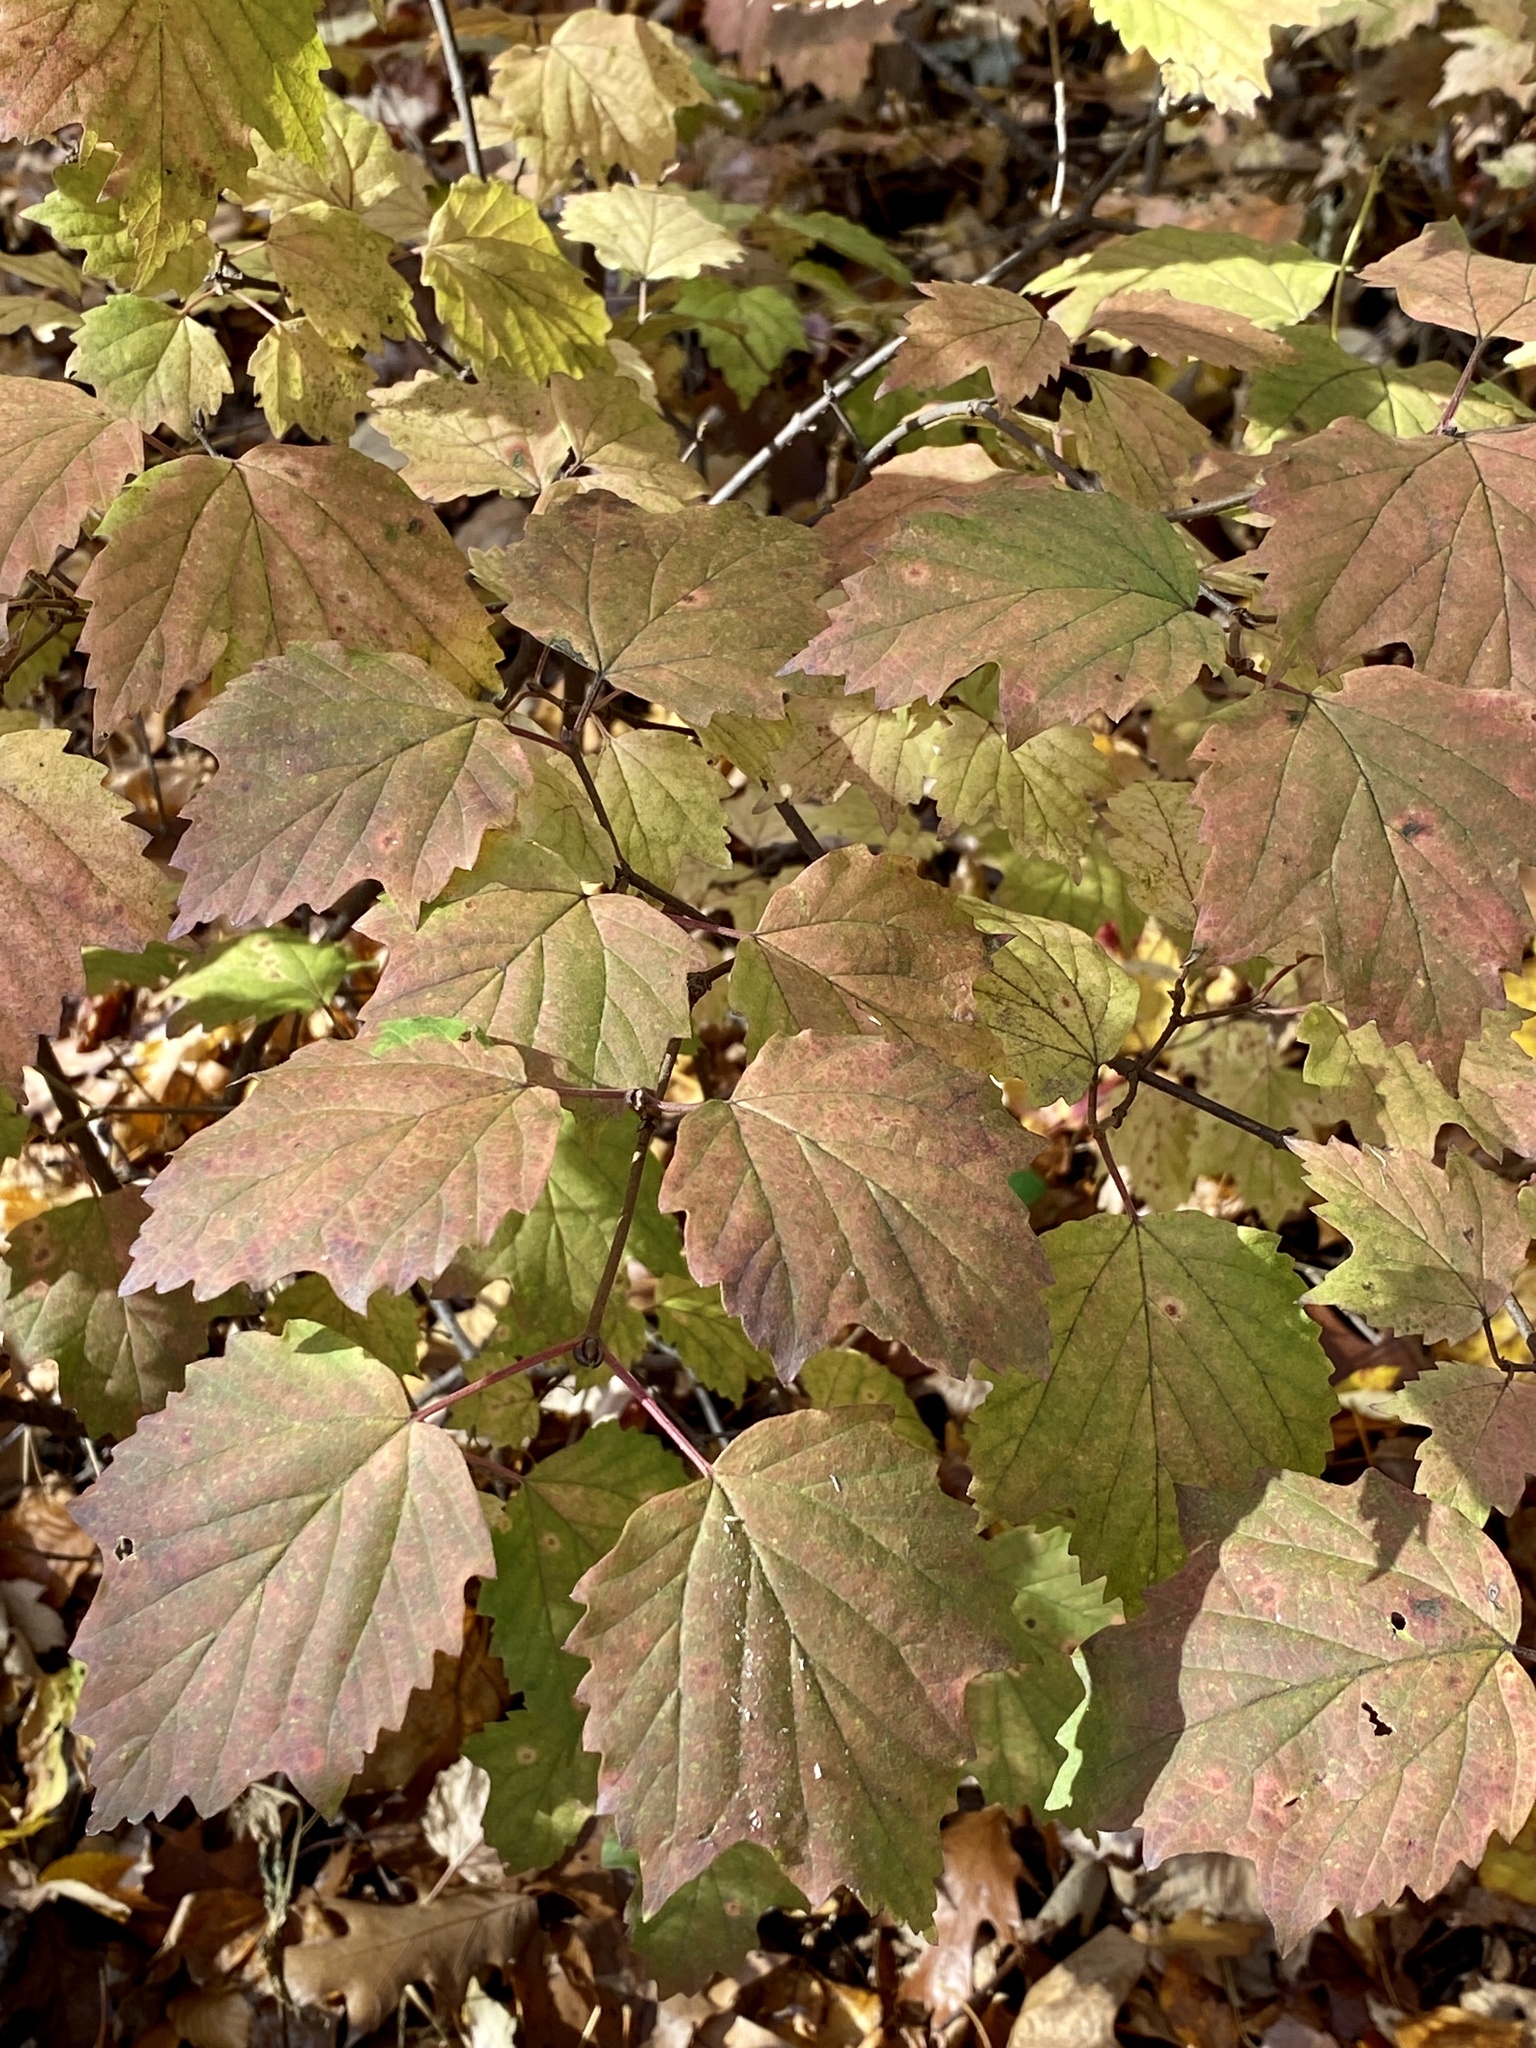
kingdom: Plantae
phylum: Tracheophyta
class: Magnoliopsida
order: Dipsacales
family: Viburnaceae
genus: Viburnum
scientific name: Viburnum acerifolium
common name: Dockmackie
